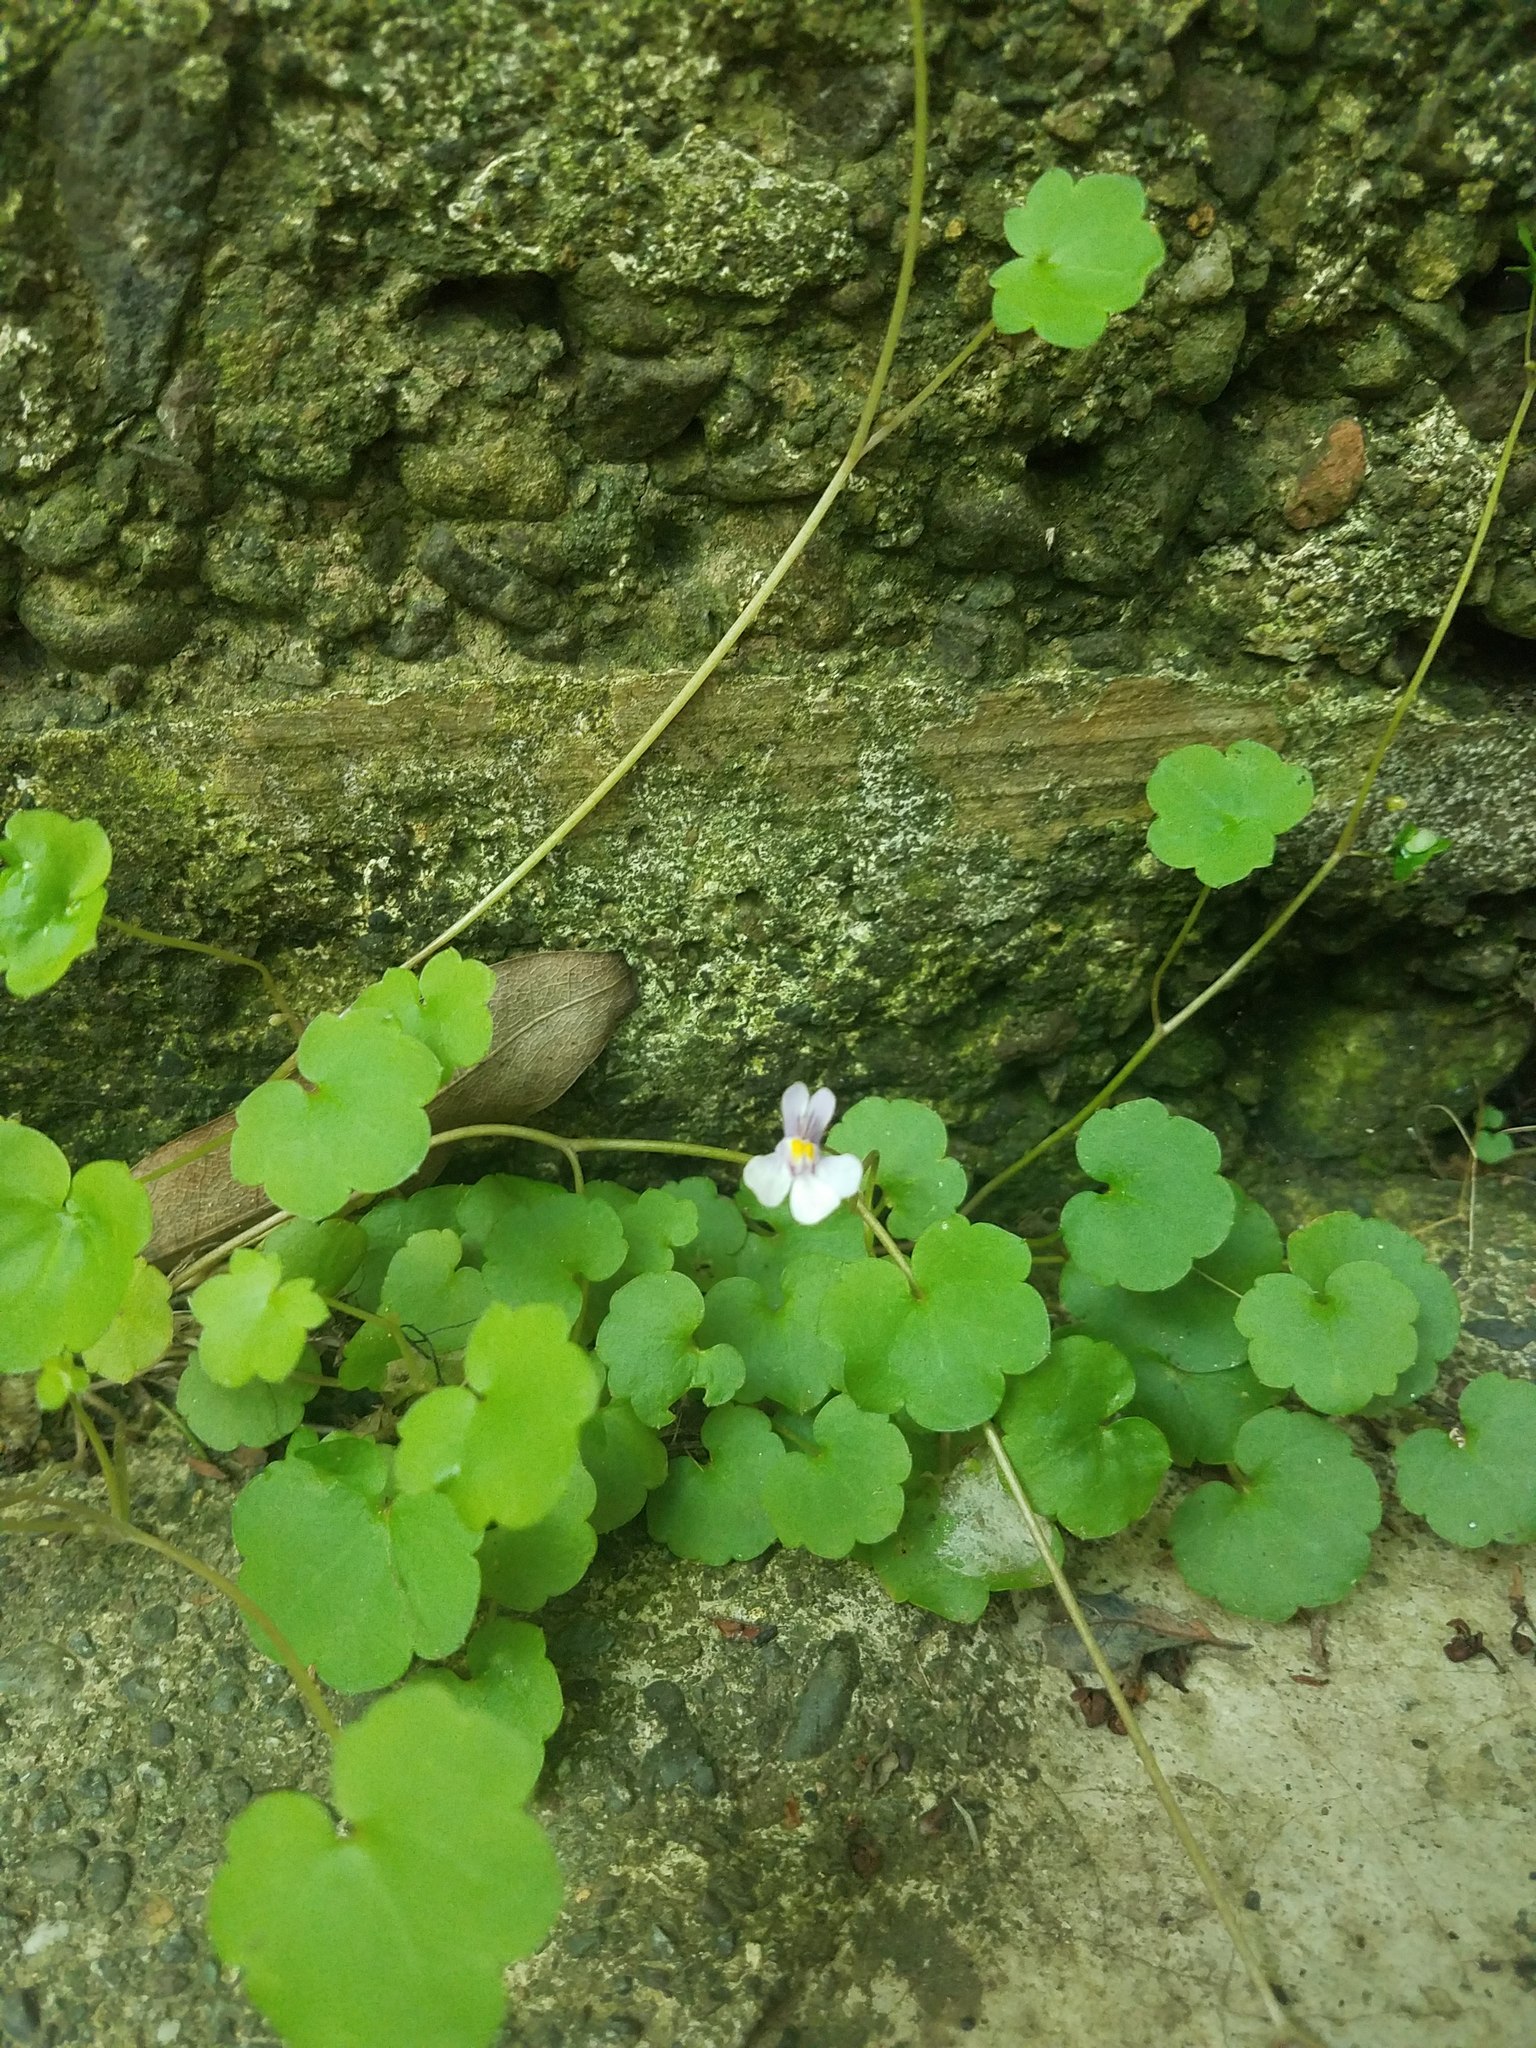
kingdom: Plantae
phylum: Tracheophyta
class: Magnoliopsida
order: Lamiales
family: Plantaginaceae
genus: Cymbalaria
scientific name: Cymbalaria muralis
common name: Ivy-leaved toadflax
